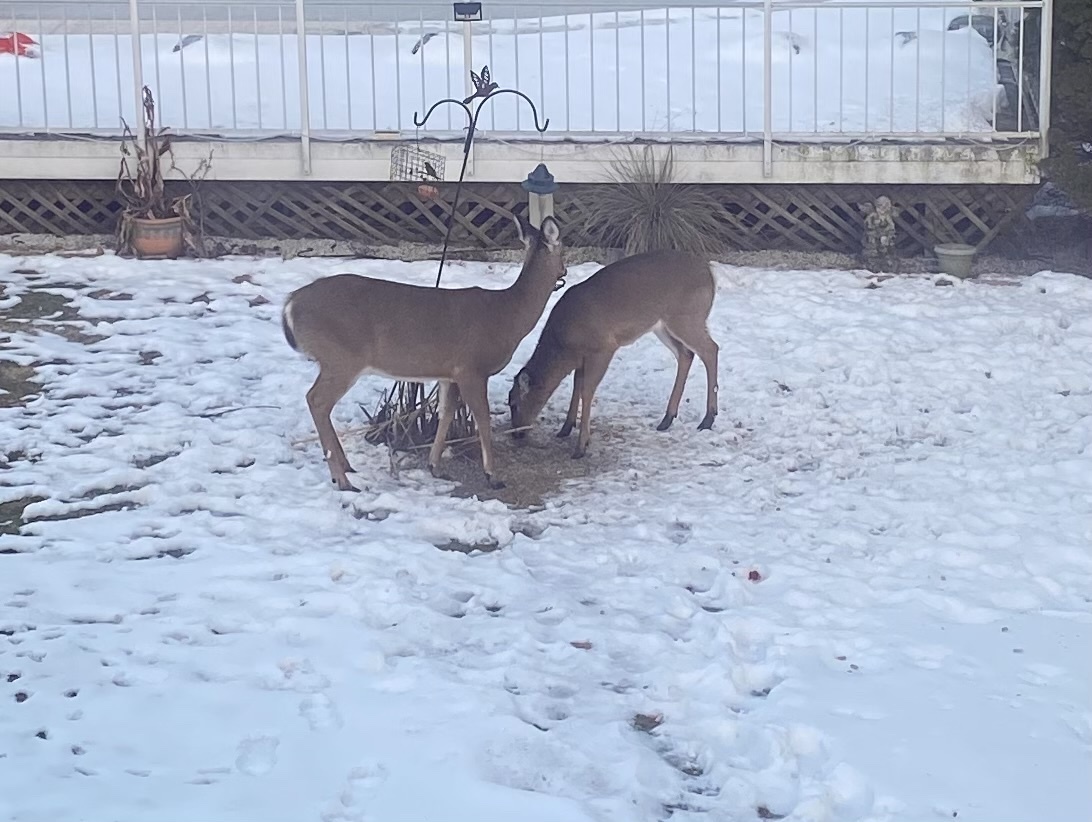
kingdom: Animalia
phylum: Chordata
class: Mammalia
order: Artiodactyla
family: Cervidae
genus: Odocoileus
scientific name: Odocoileus virginianus
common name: White-tailed deer
